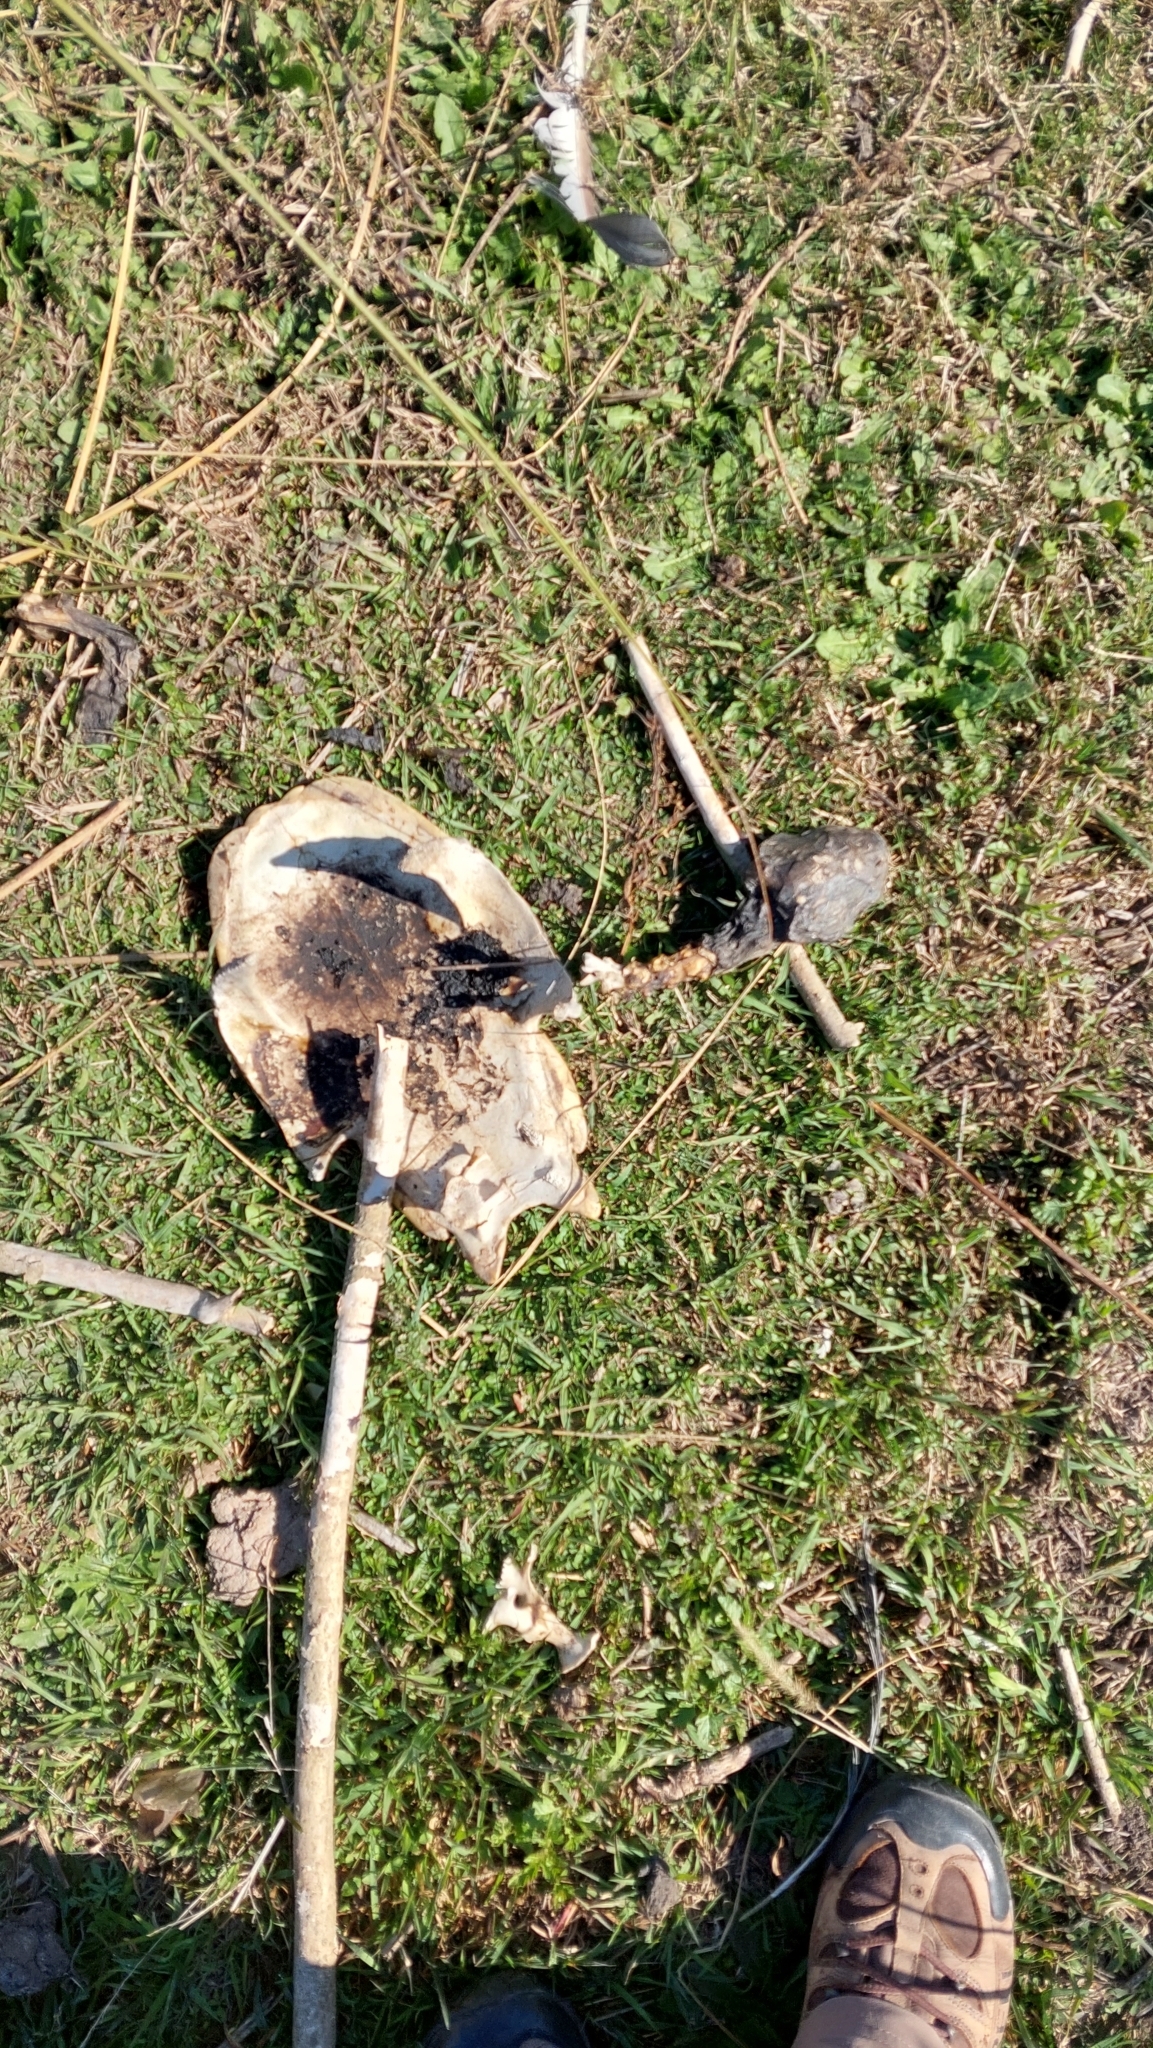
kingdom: Animalia
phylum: Chordata
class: Testudines
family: Chelidae
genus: Phrynops
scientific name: Phrynops hilarii
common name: Side-necked turtle of saint hillaire
